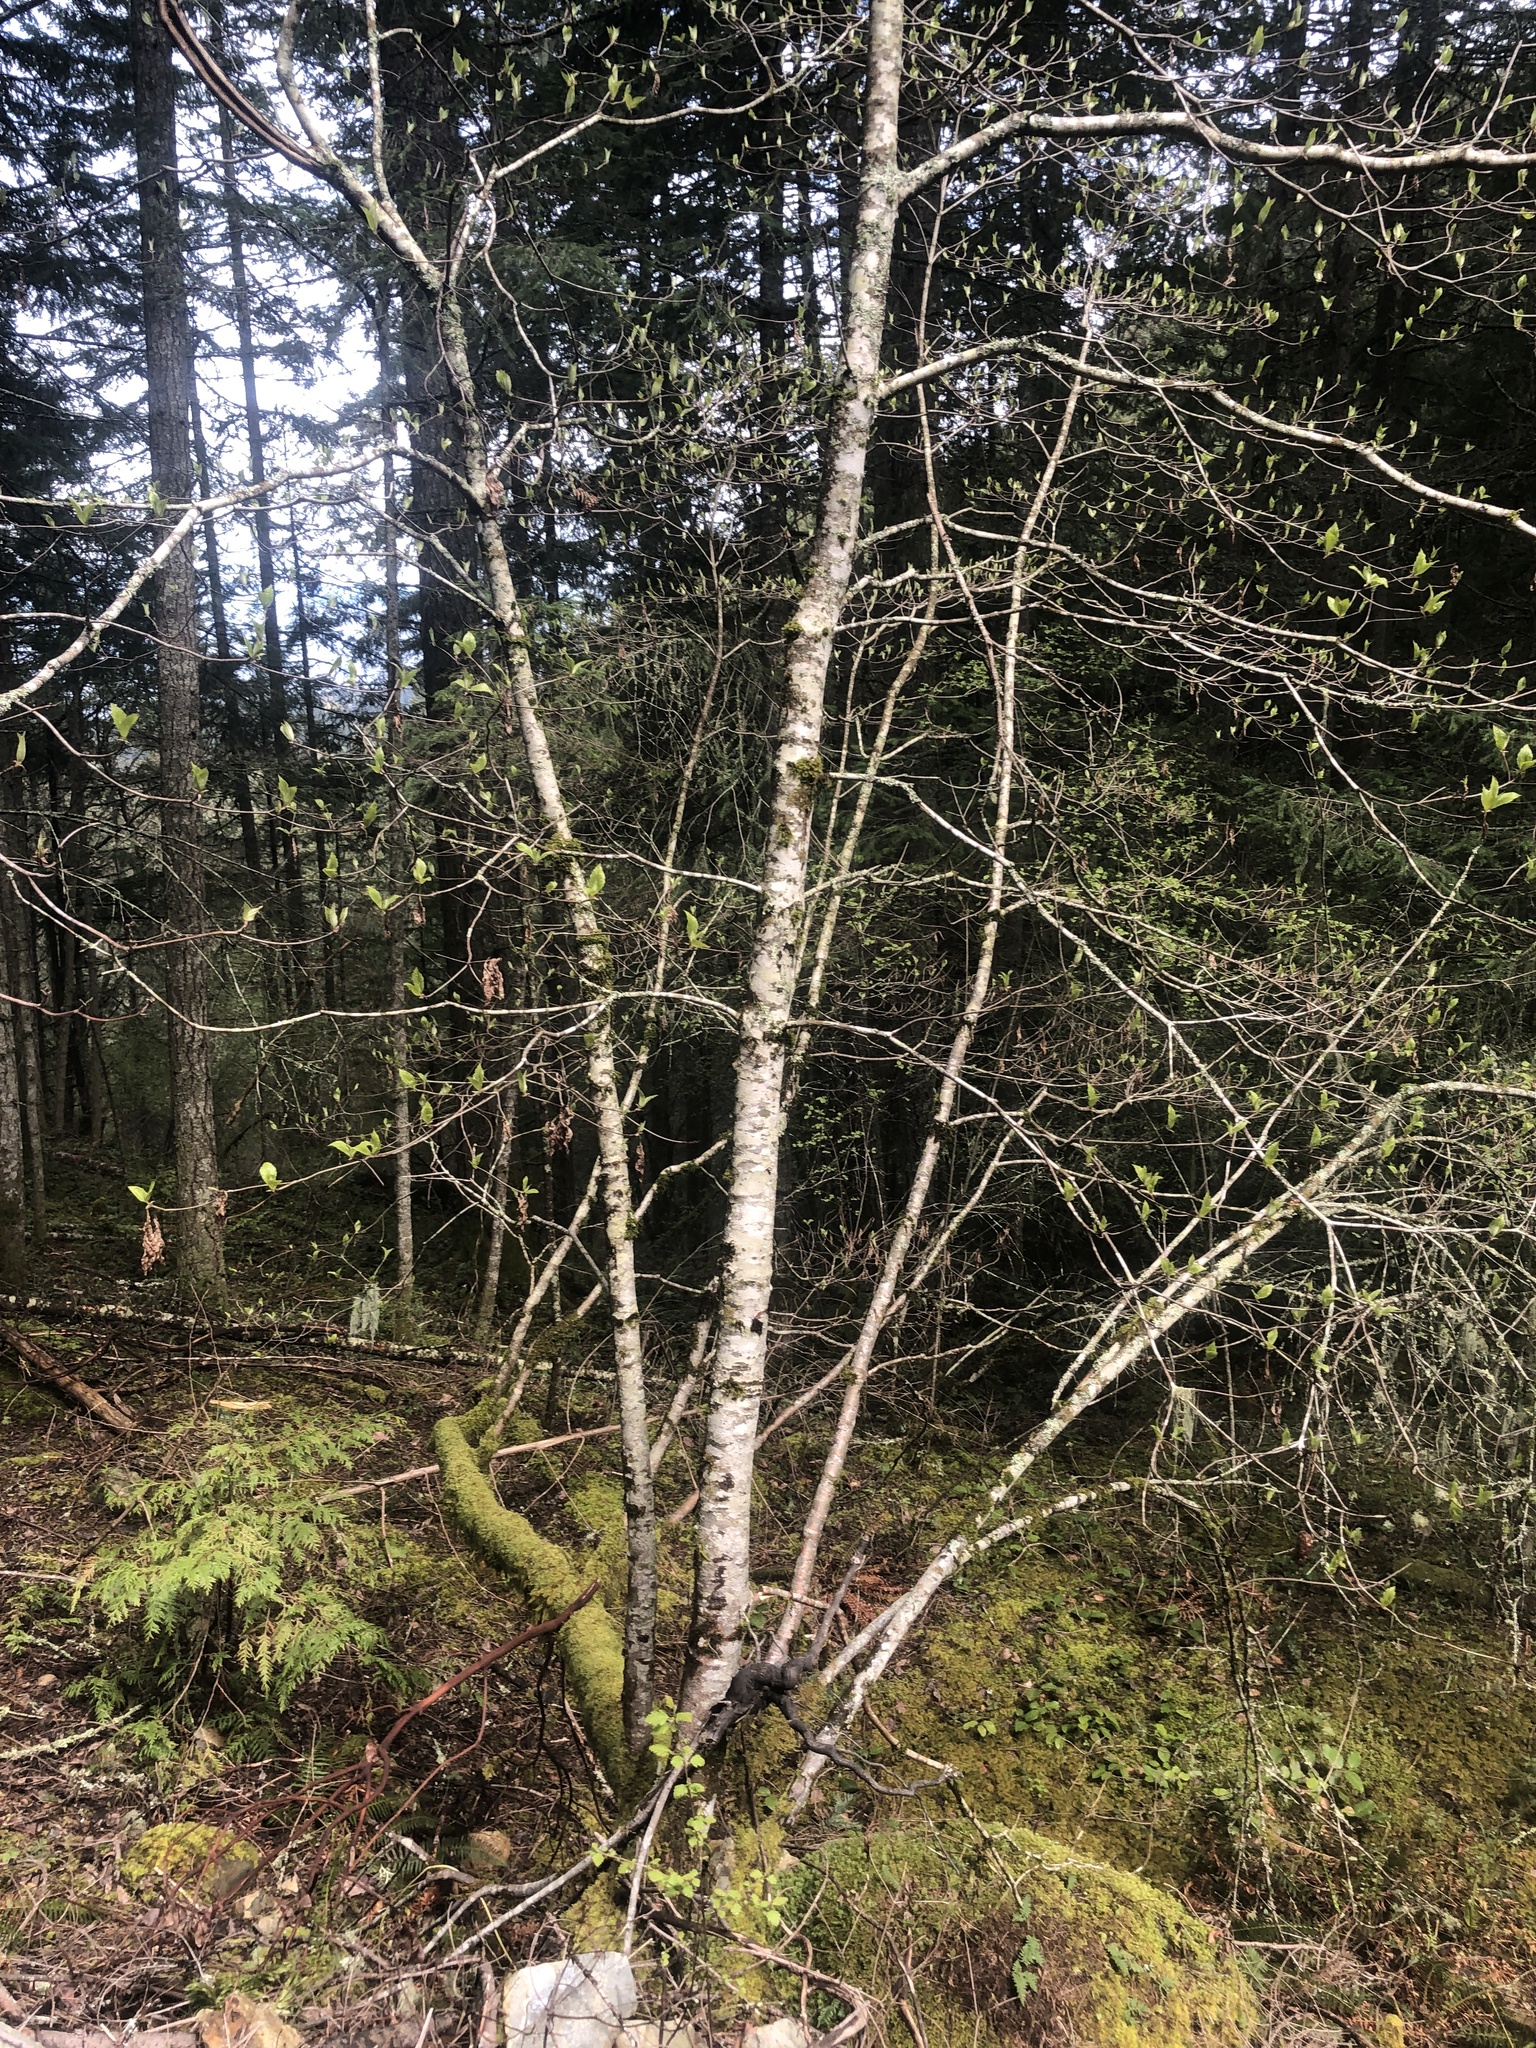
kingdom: Plantae
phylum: Tracheophyta
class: Magnoliopsida
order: Cornales
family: Cornaceae
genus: Cornus
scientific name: Cornus nuttallii
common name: Pacific dogwood
